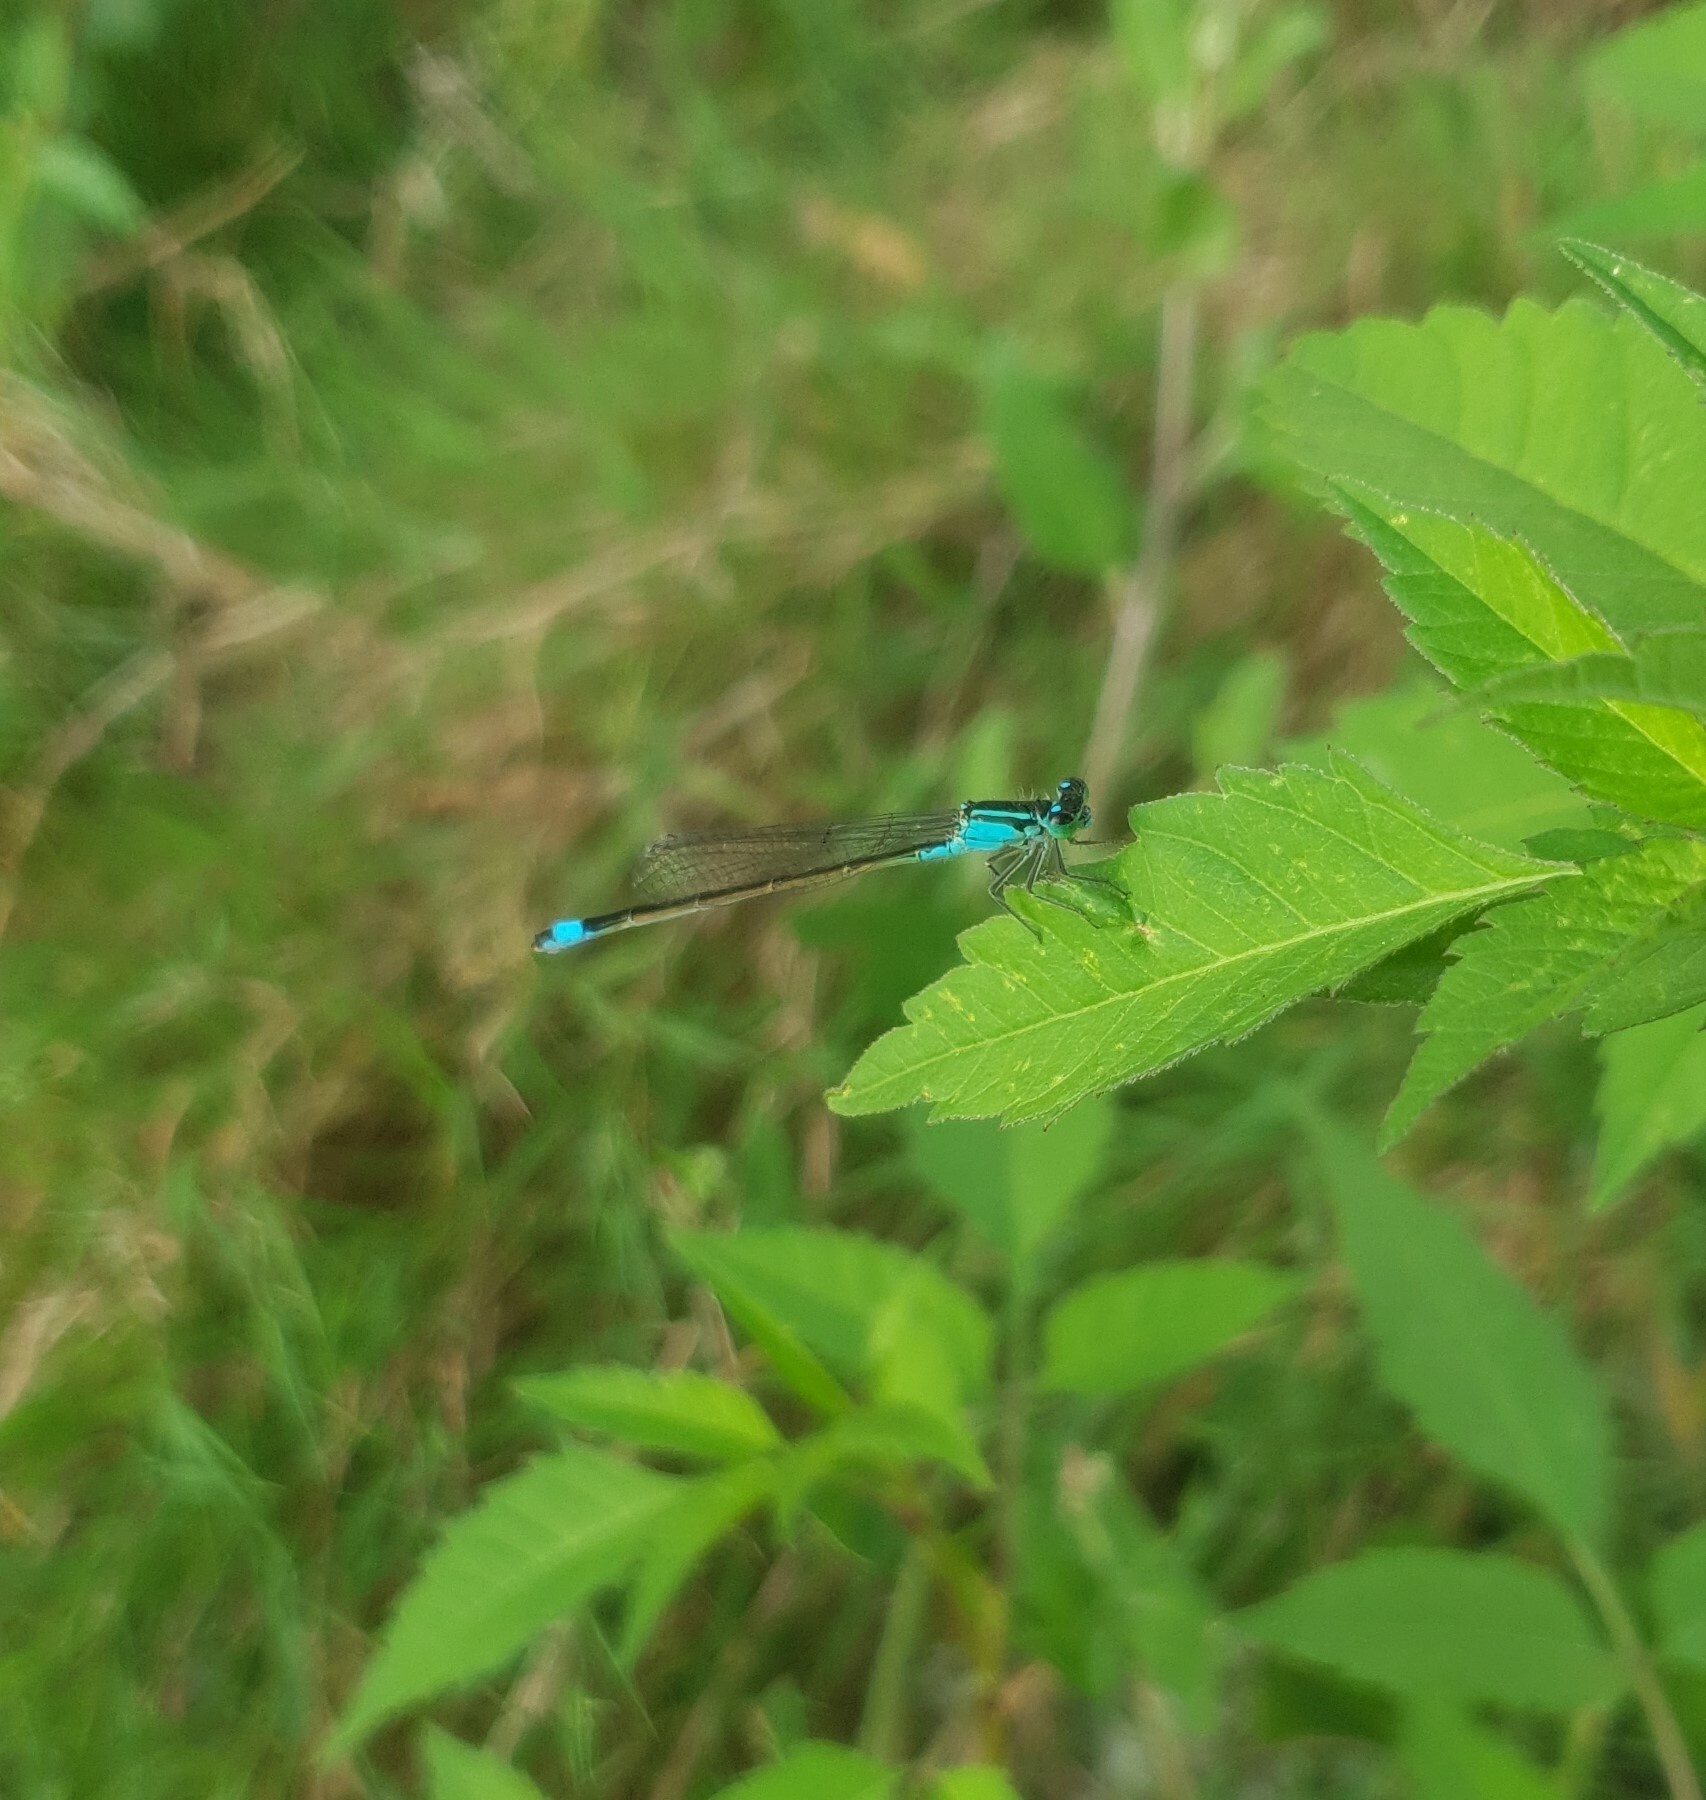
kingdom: Animalia
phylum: Arthropoda
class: Insecta
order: Odonata
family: Coenagrionidae
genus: Ischnura
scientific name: Ischnura elegans
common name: Blue-tailed damselfly
